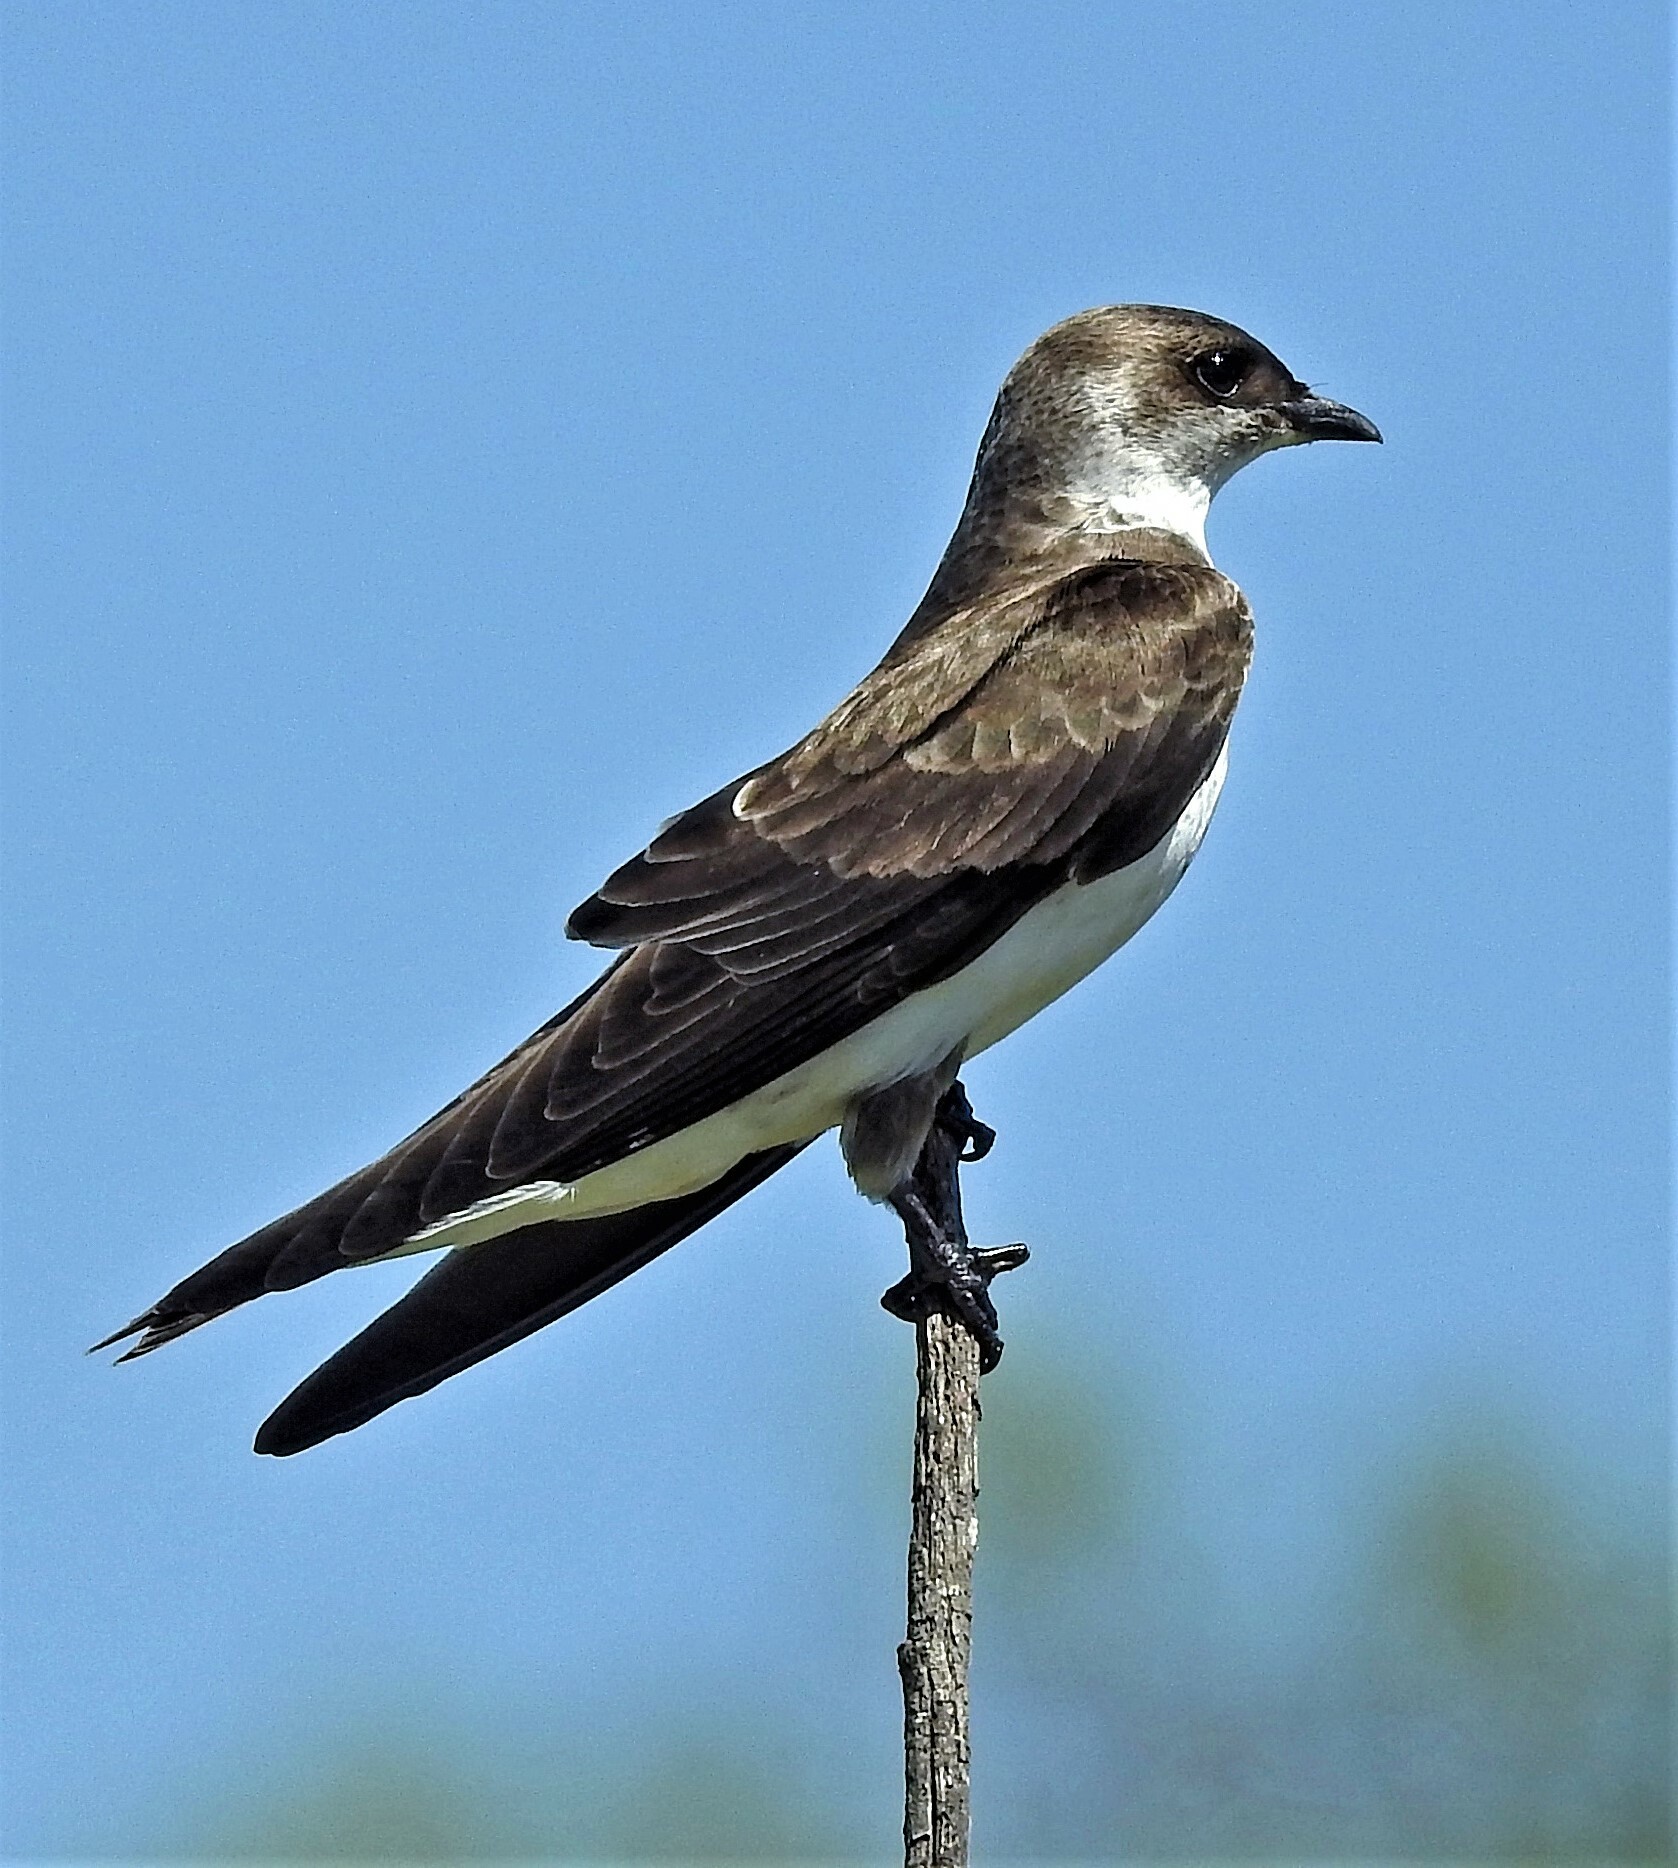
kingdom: Animalia
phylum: Chordata
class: Aves
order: Passeriformes
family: Hirundinidae
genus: Progne
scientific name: Progne tapera
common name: Brown-chested martin
